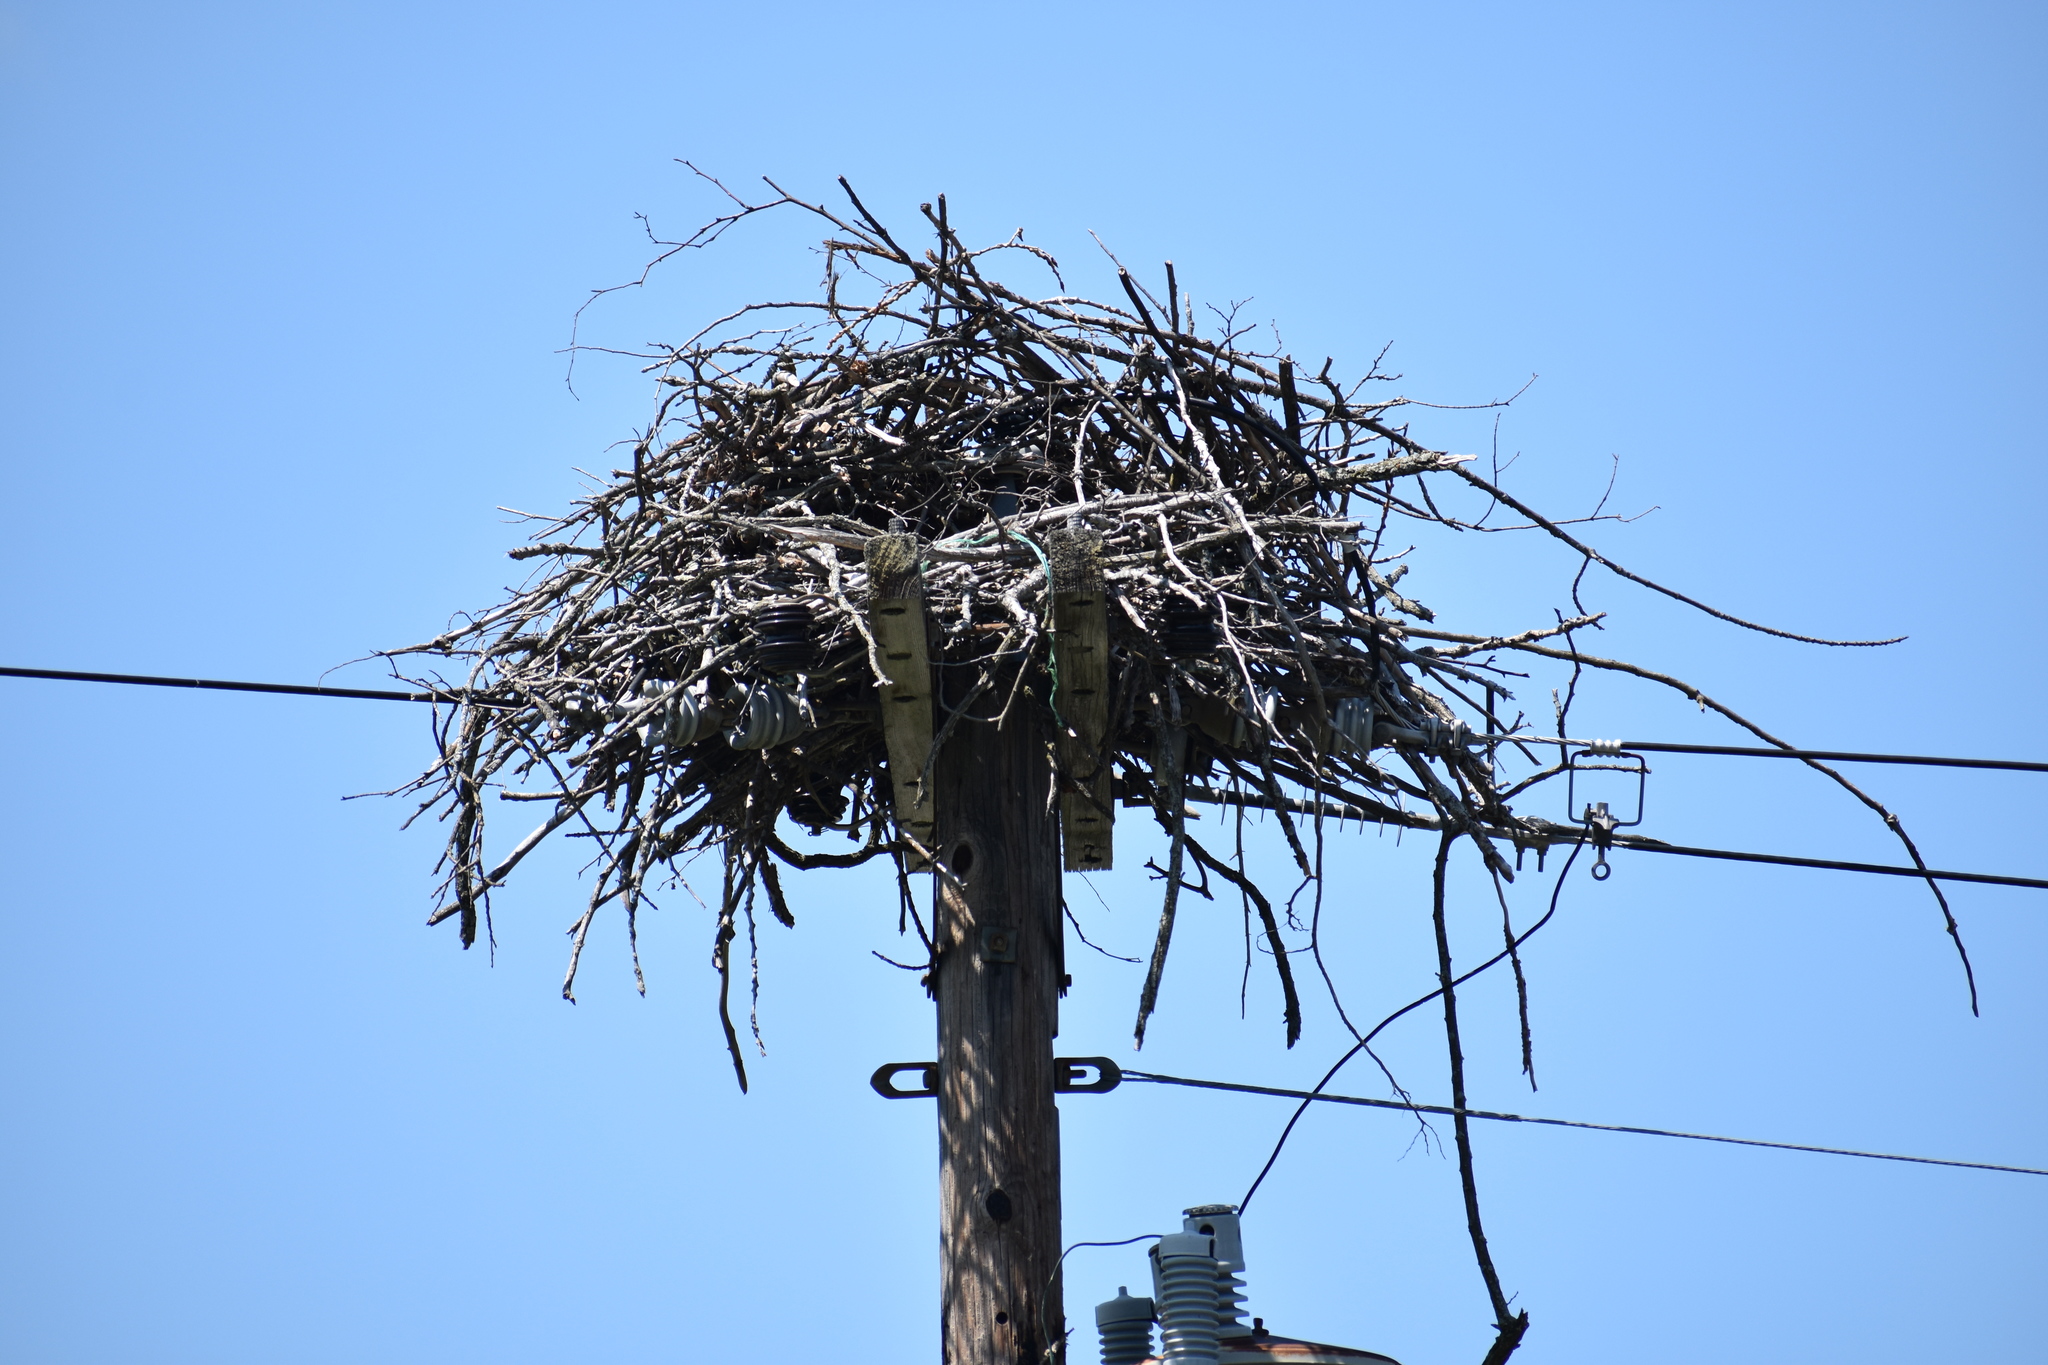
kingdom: Animalia
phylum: Chordata
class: Aves
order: Accipitriformes
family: Pandionidae
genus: Pandion
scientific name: Pandion haliaetus
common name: Osprey
